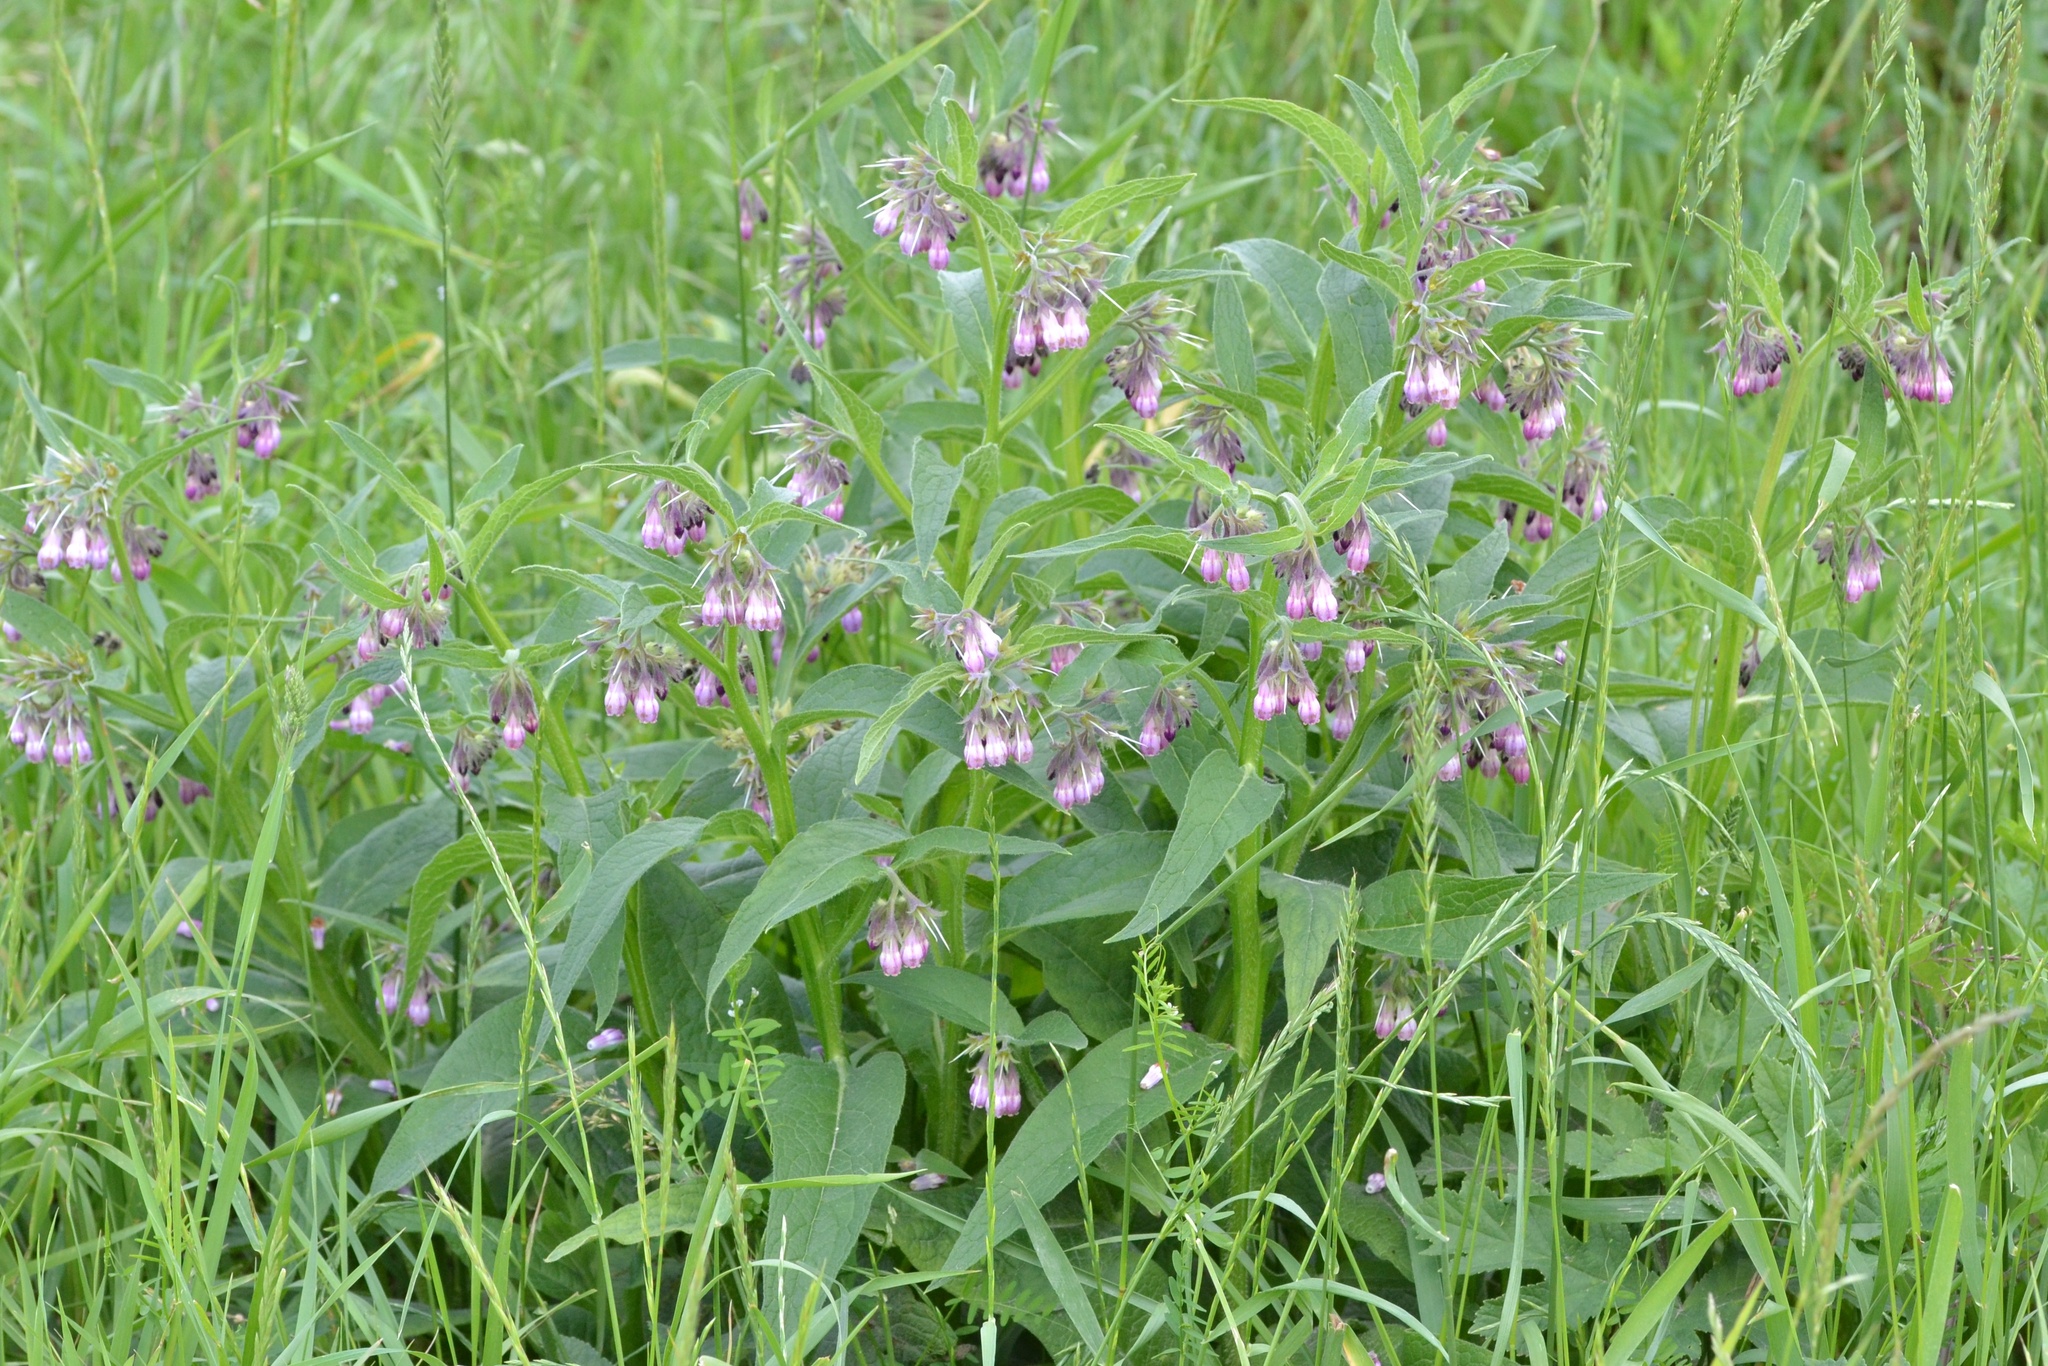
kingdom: Plantae
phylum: Tracheophyta
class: Magnoliopsida
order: Boraginales
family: Boraginaceae
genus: Symphytum
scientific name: Symphytum officinale
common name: Common comfrey
